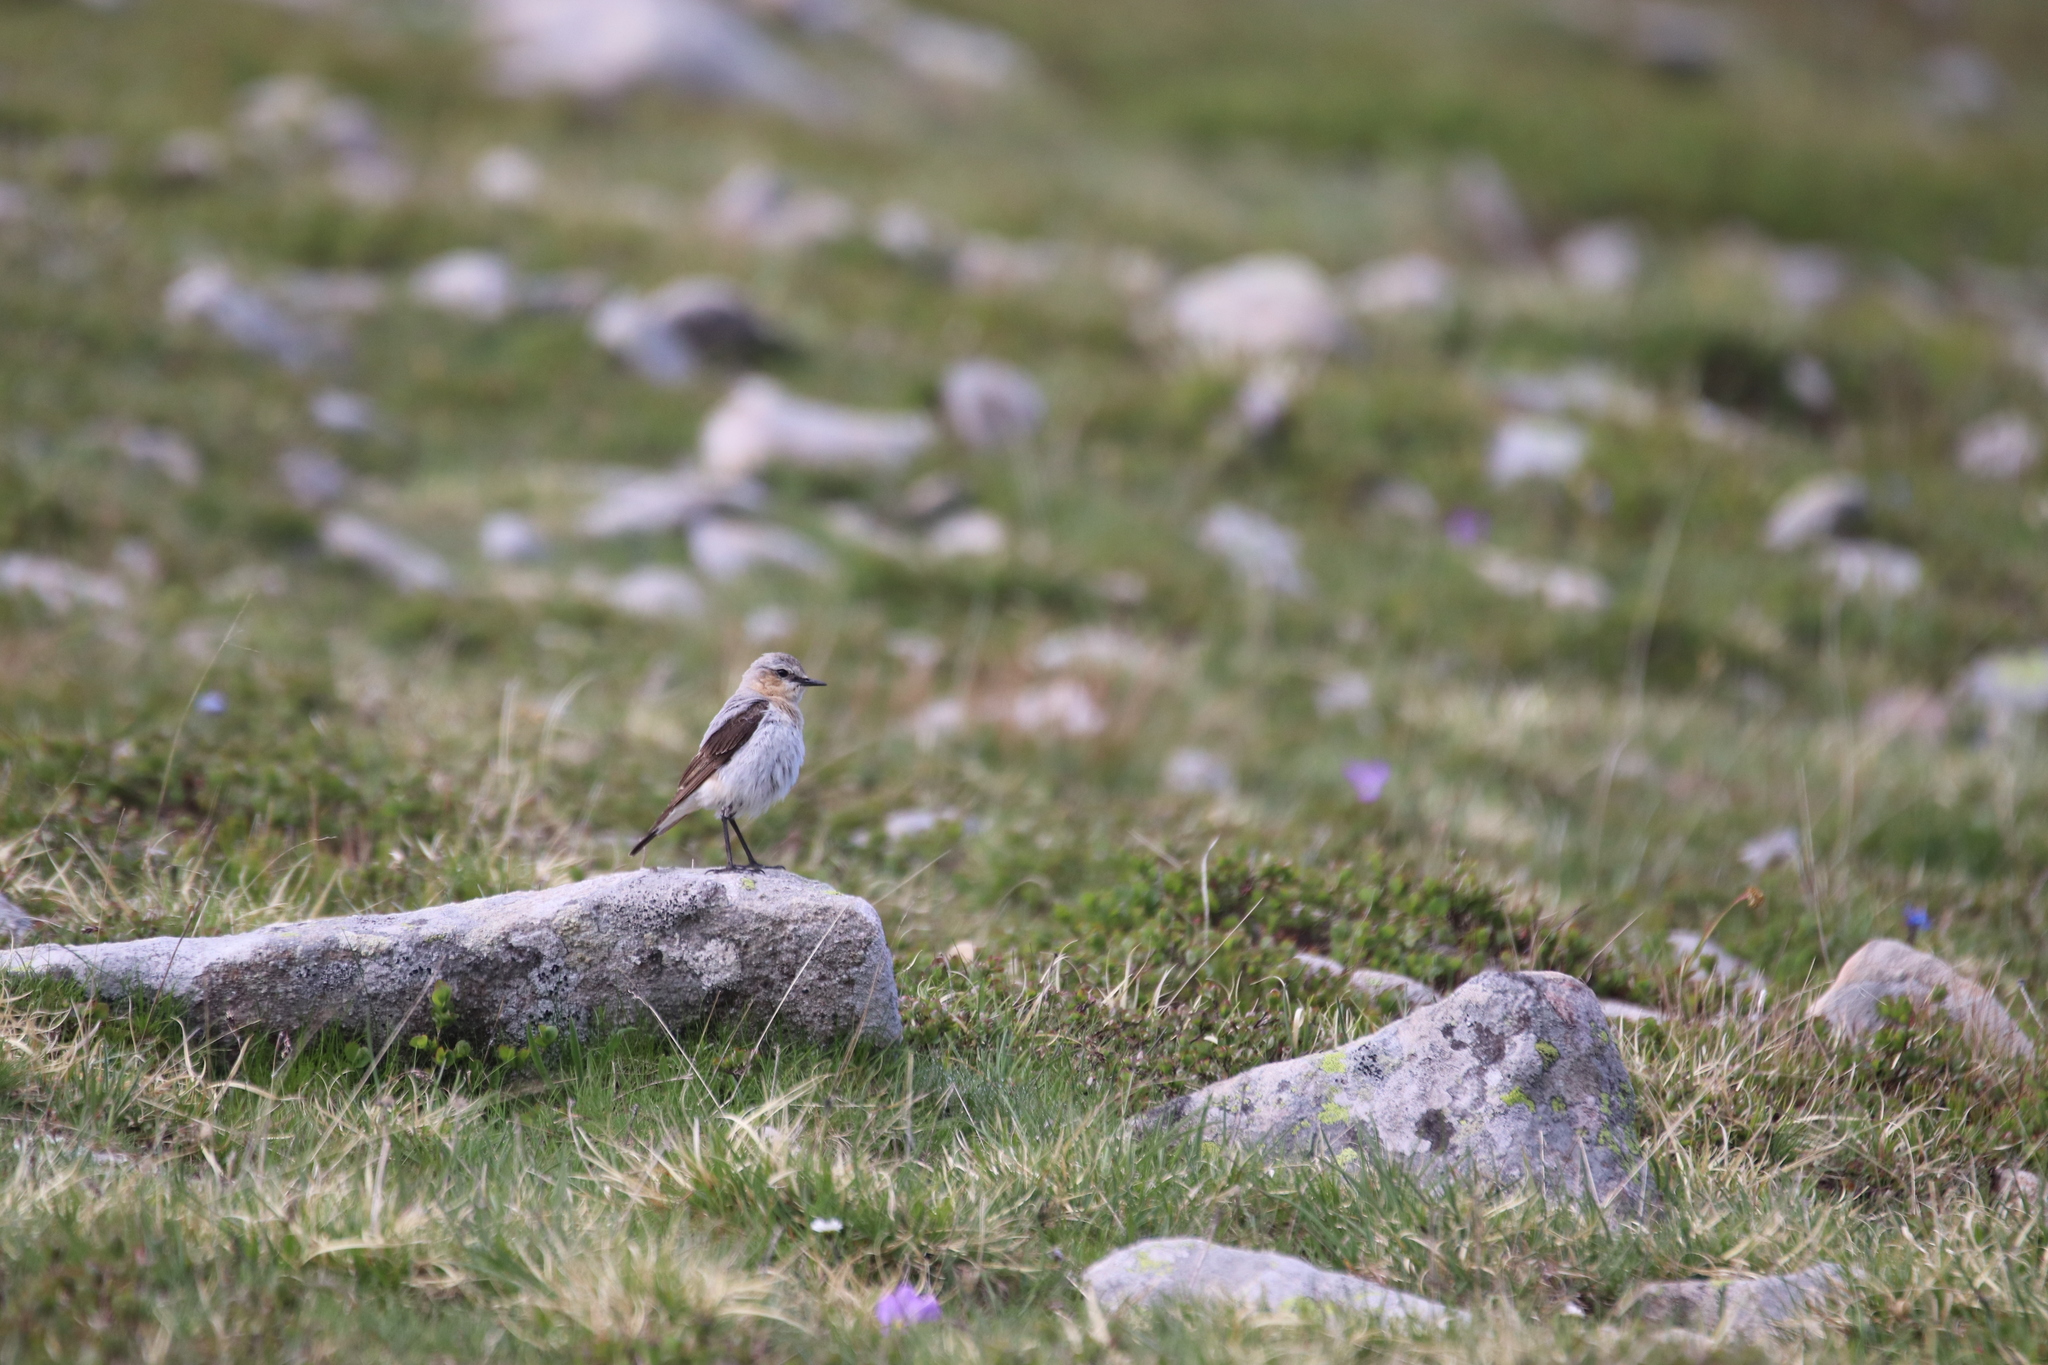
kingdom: Animalia
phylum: Chordata
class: Aves
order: Passeriformes
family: Muscicapidae
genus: Oenanthe
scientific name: Oenanthe oenanthe
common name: Northern wheatear
